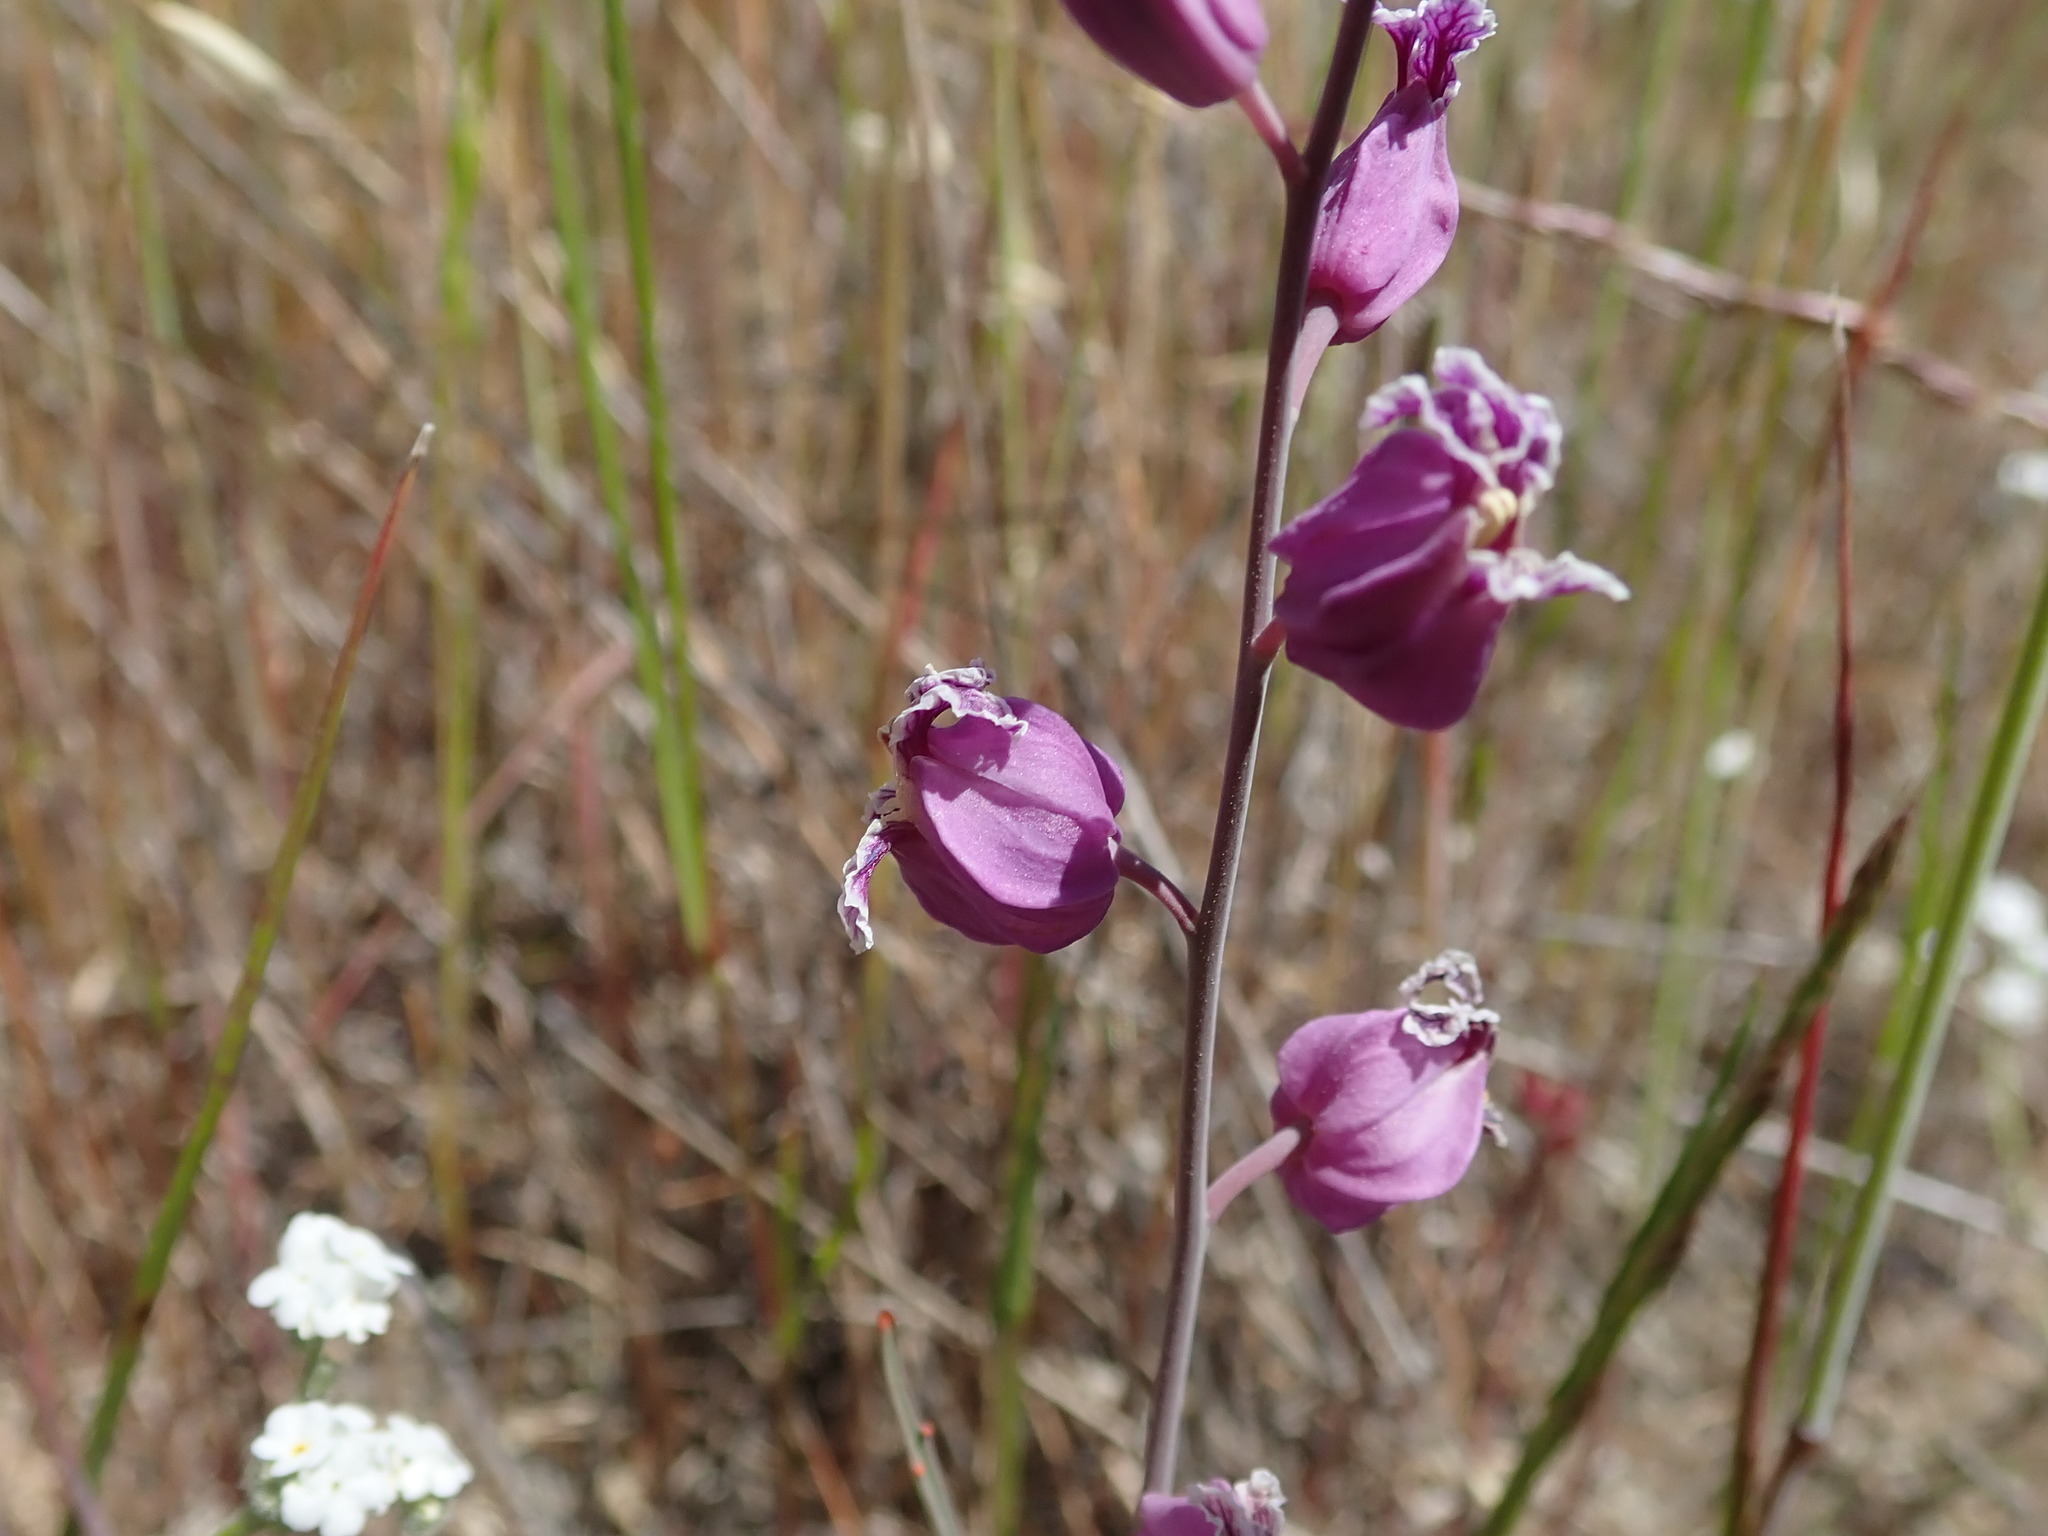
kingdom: Plantae
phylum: Tracheophyta
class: Magnoliopsida
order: Brassicales
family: Brassicaceae
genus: Streptanthus
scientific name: Streptanthus glandulosus
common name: Jewel-flower
